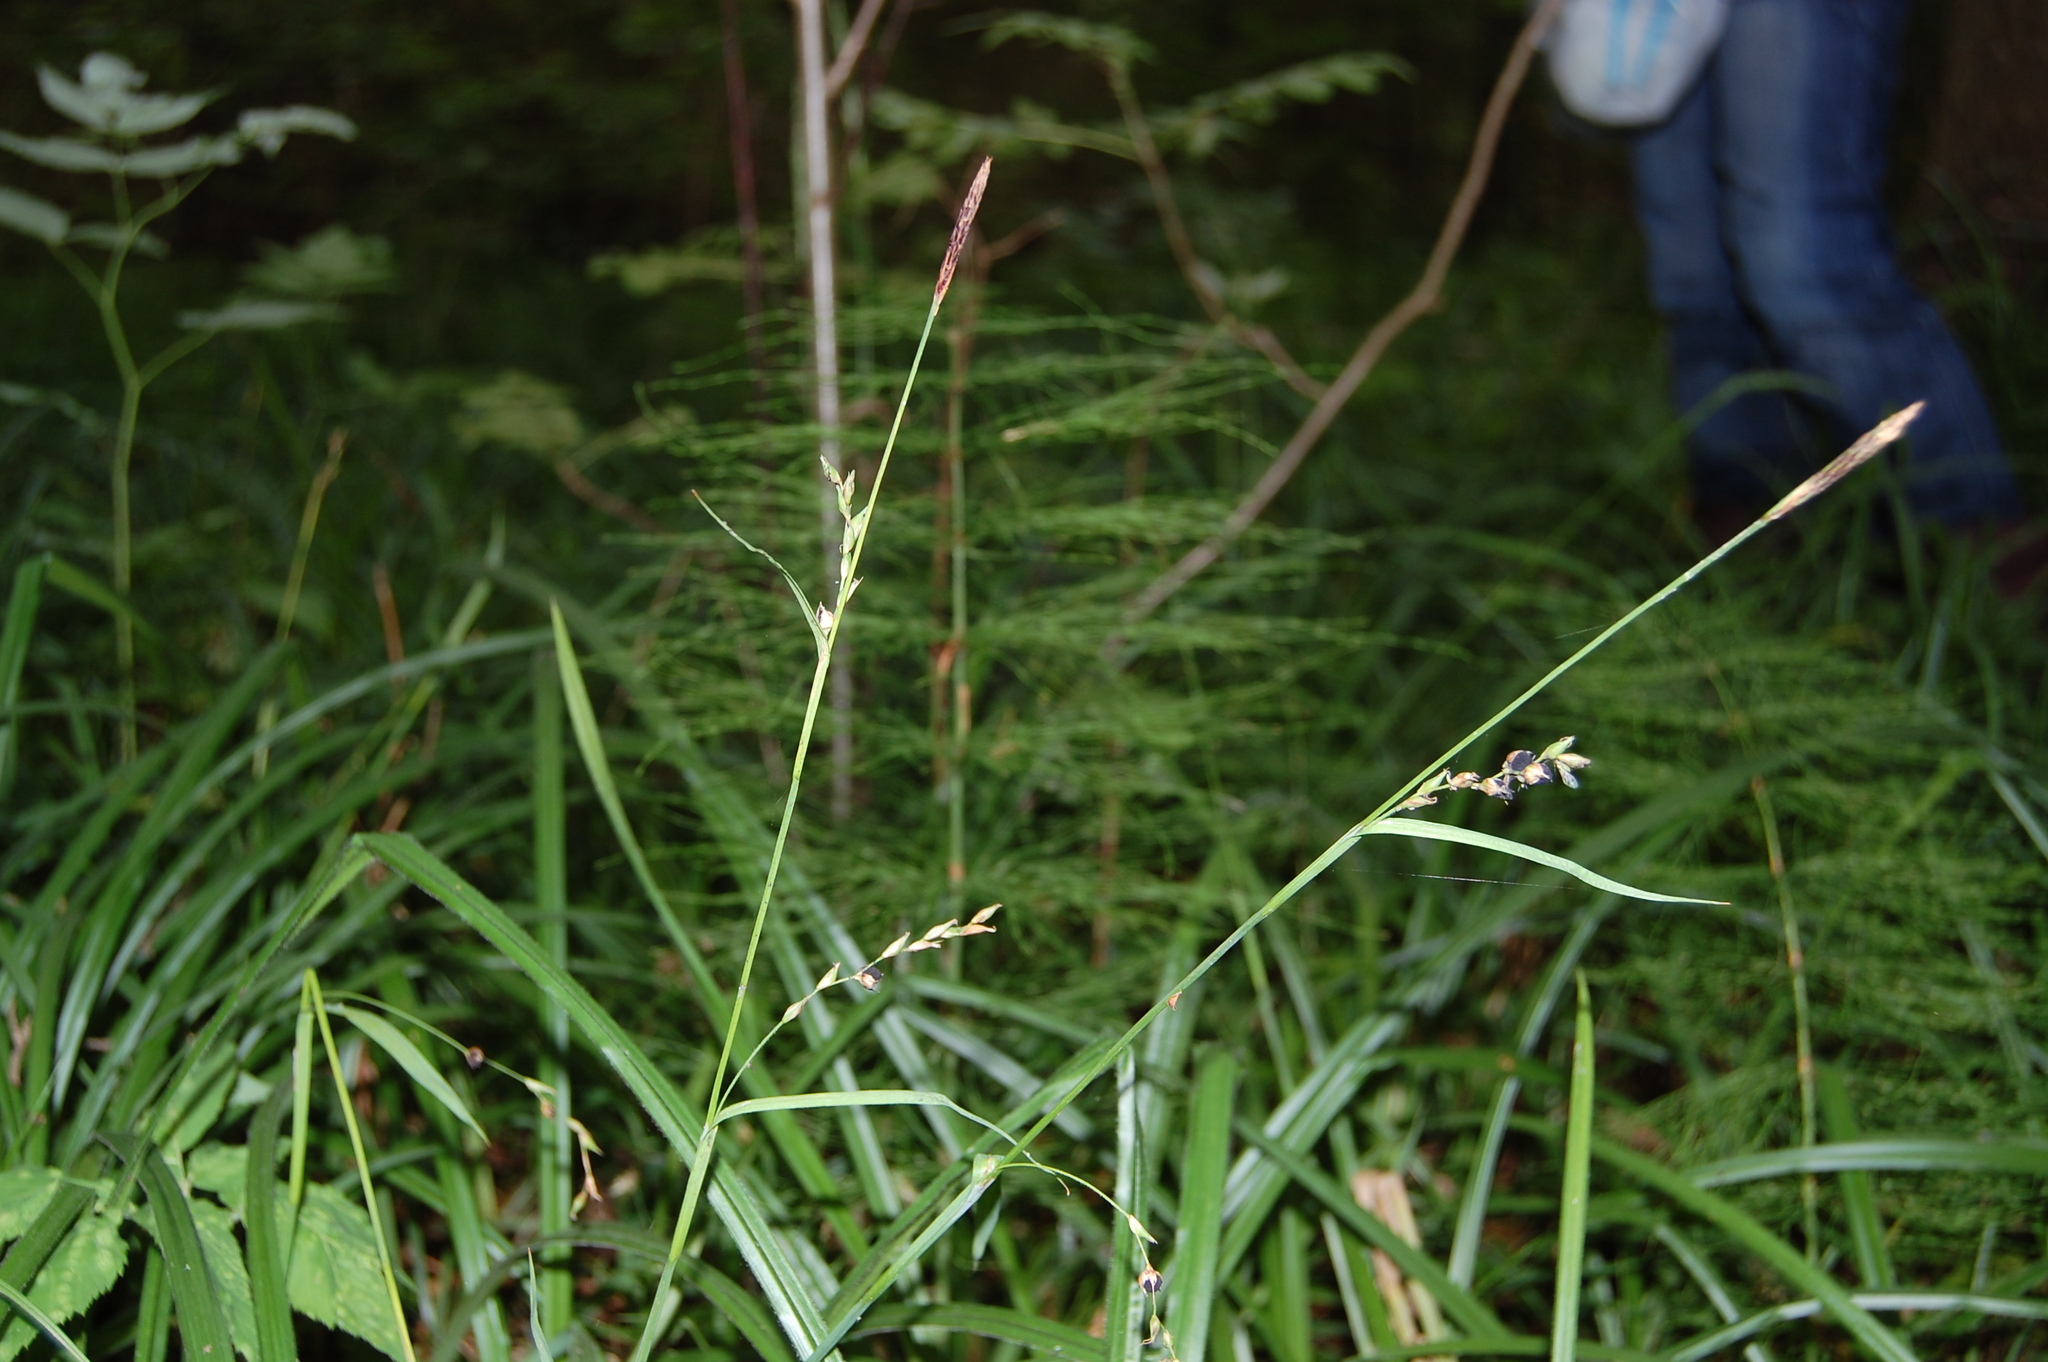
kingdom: Plantae
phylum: Tracheophyta
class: Liliopsida
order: Poales
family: Cyperaceae
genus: Carex
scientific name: Carex pilosa
